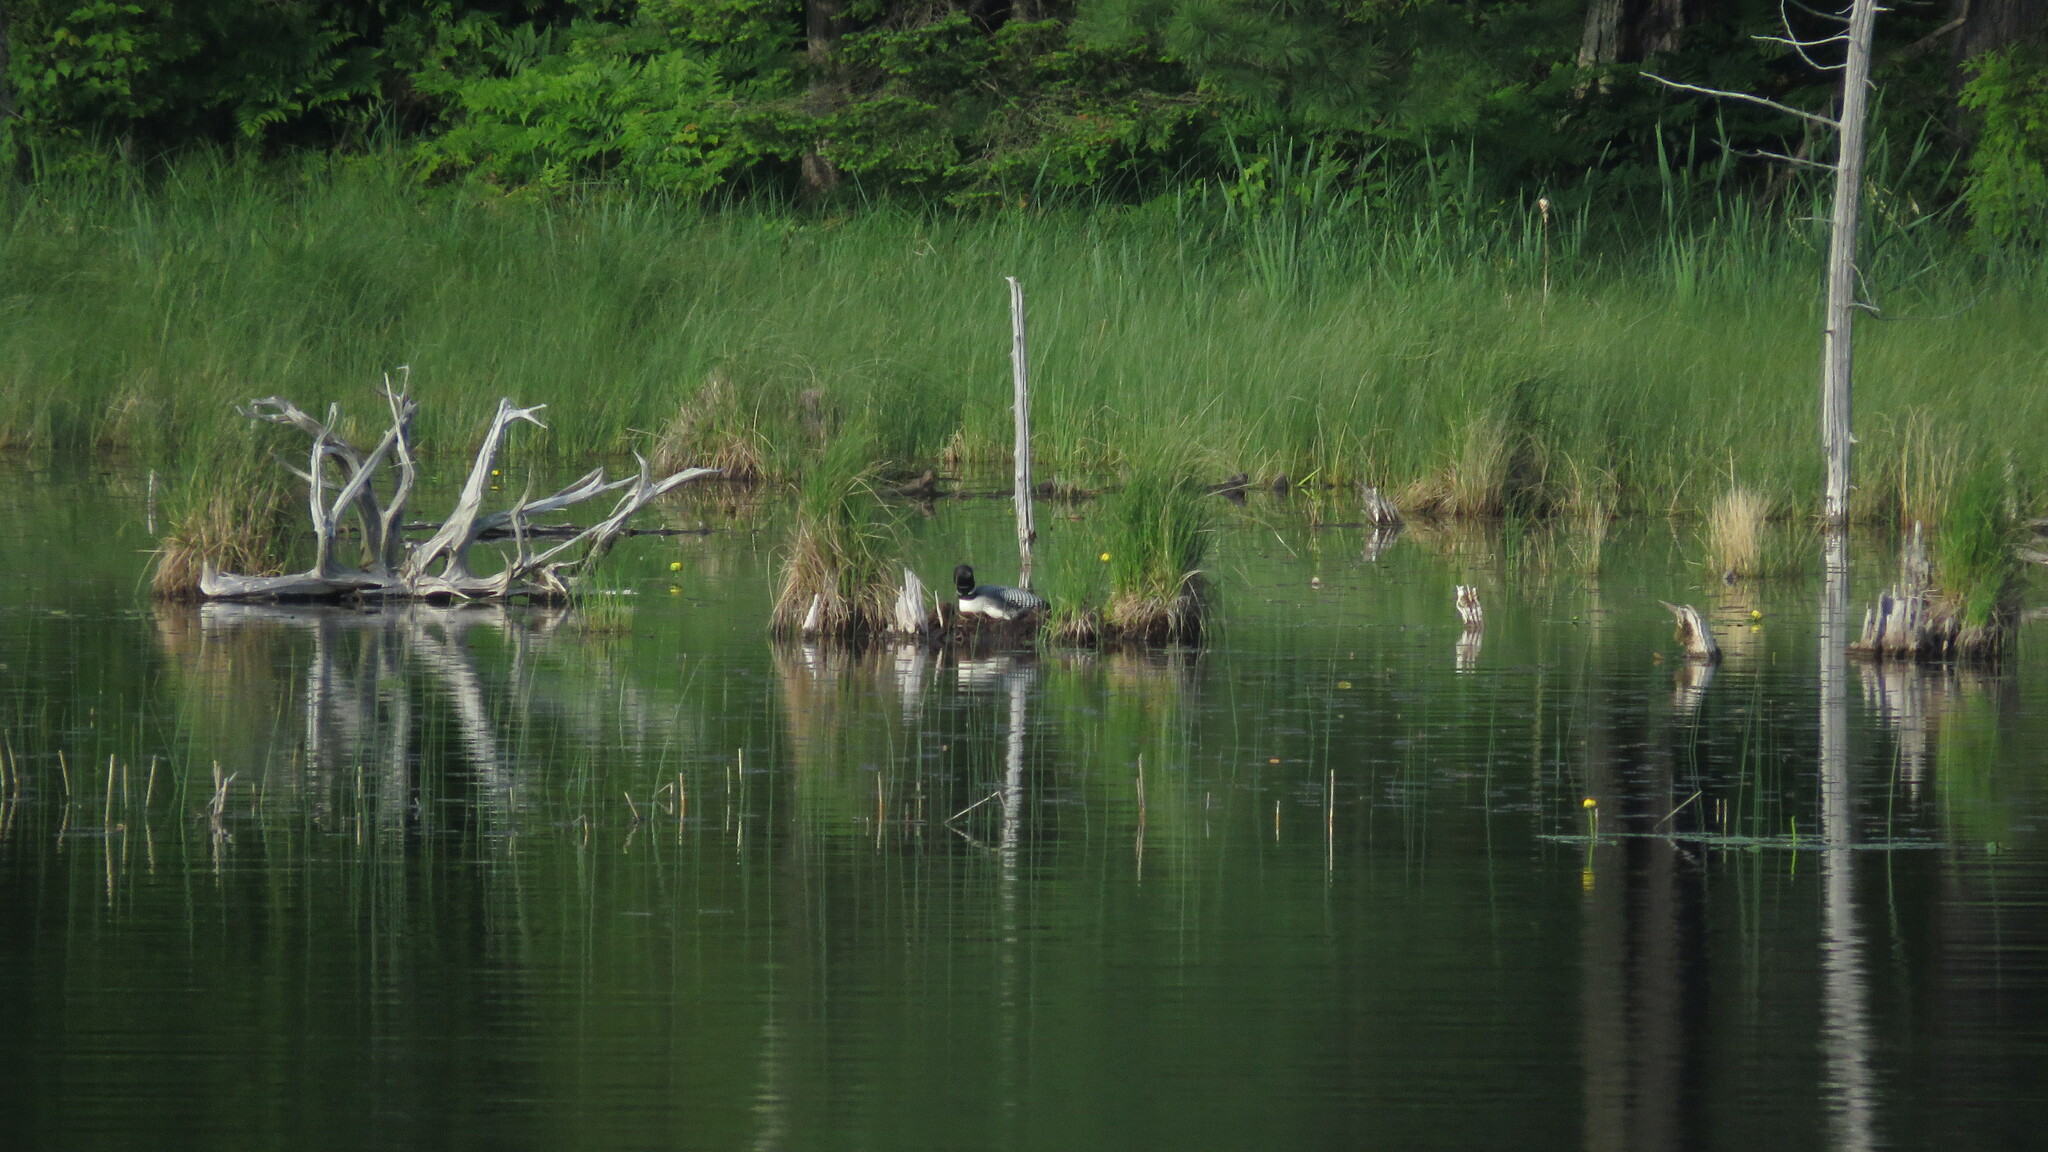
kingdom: Animalia
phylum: Chordata
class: Aves
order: Gaviiformes
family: Gaviidae
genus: Gavia
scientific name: Gavia immer
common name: Common loon
